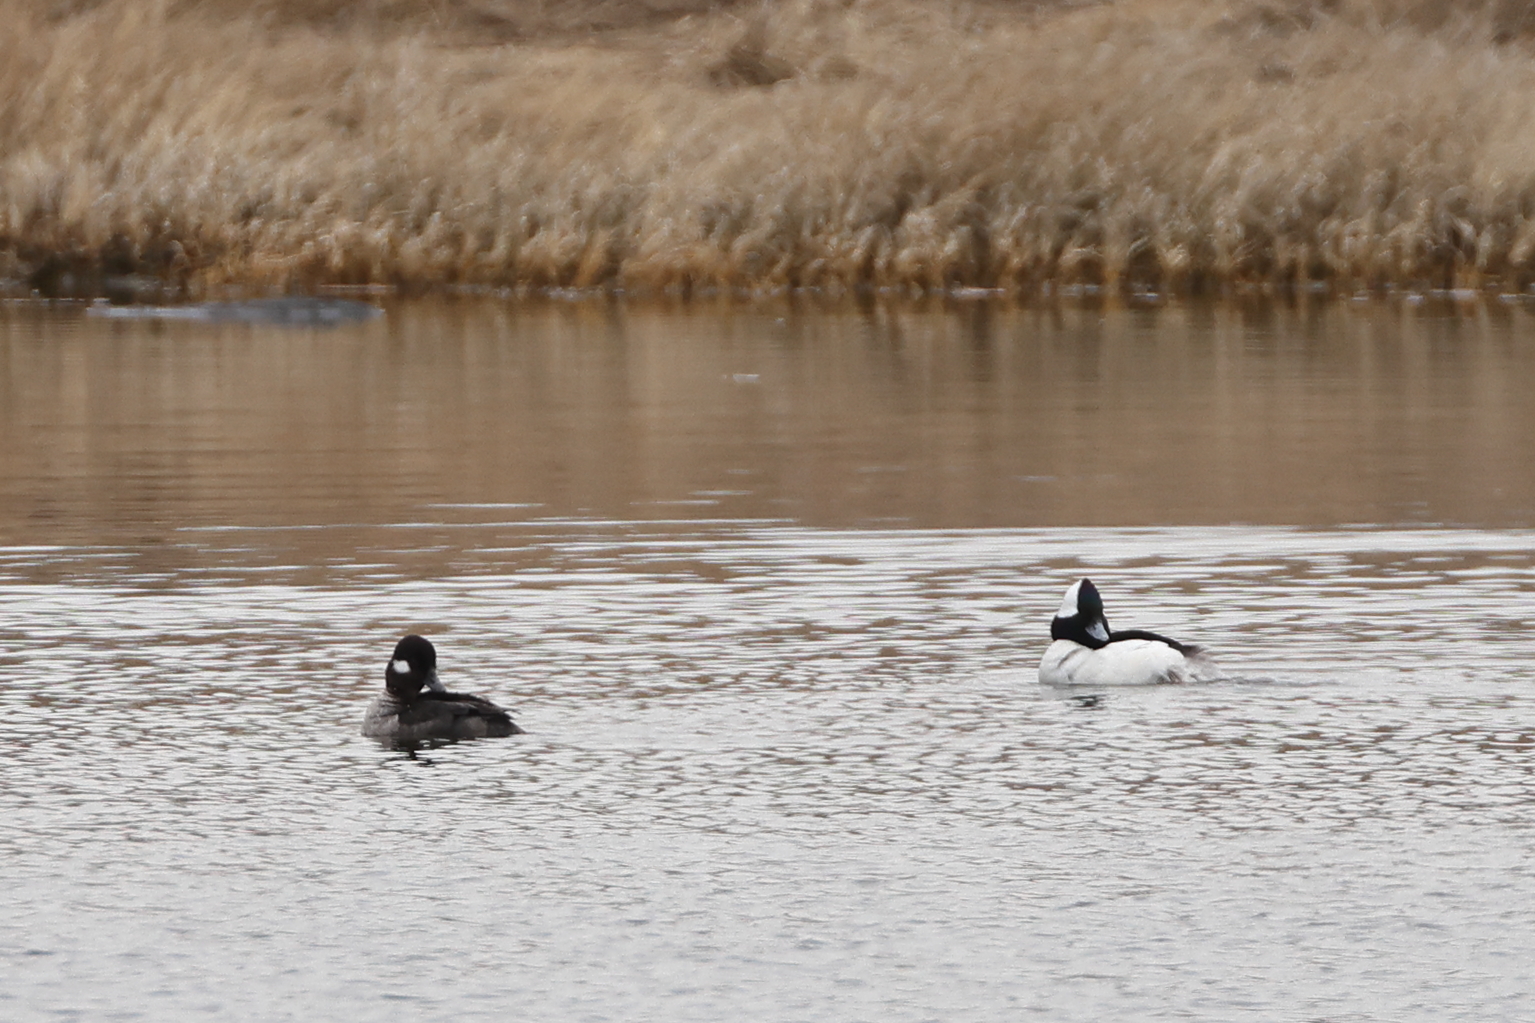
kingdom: Animalia
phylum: Chordata
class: Aves
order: Anseriformes
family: Anatidae
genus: Bucephala
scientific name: Bucephala albeola
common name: Bufflehead
